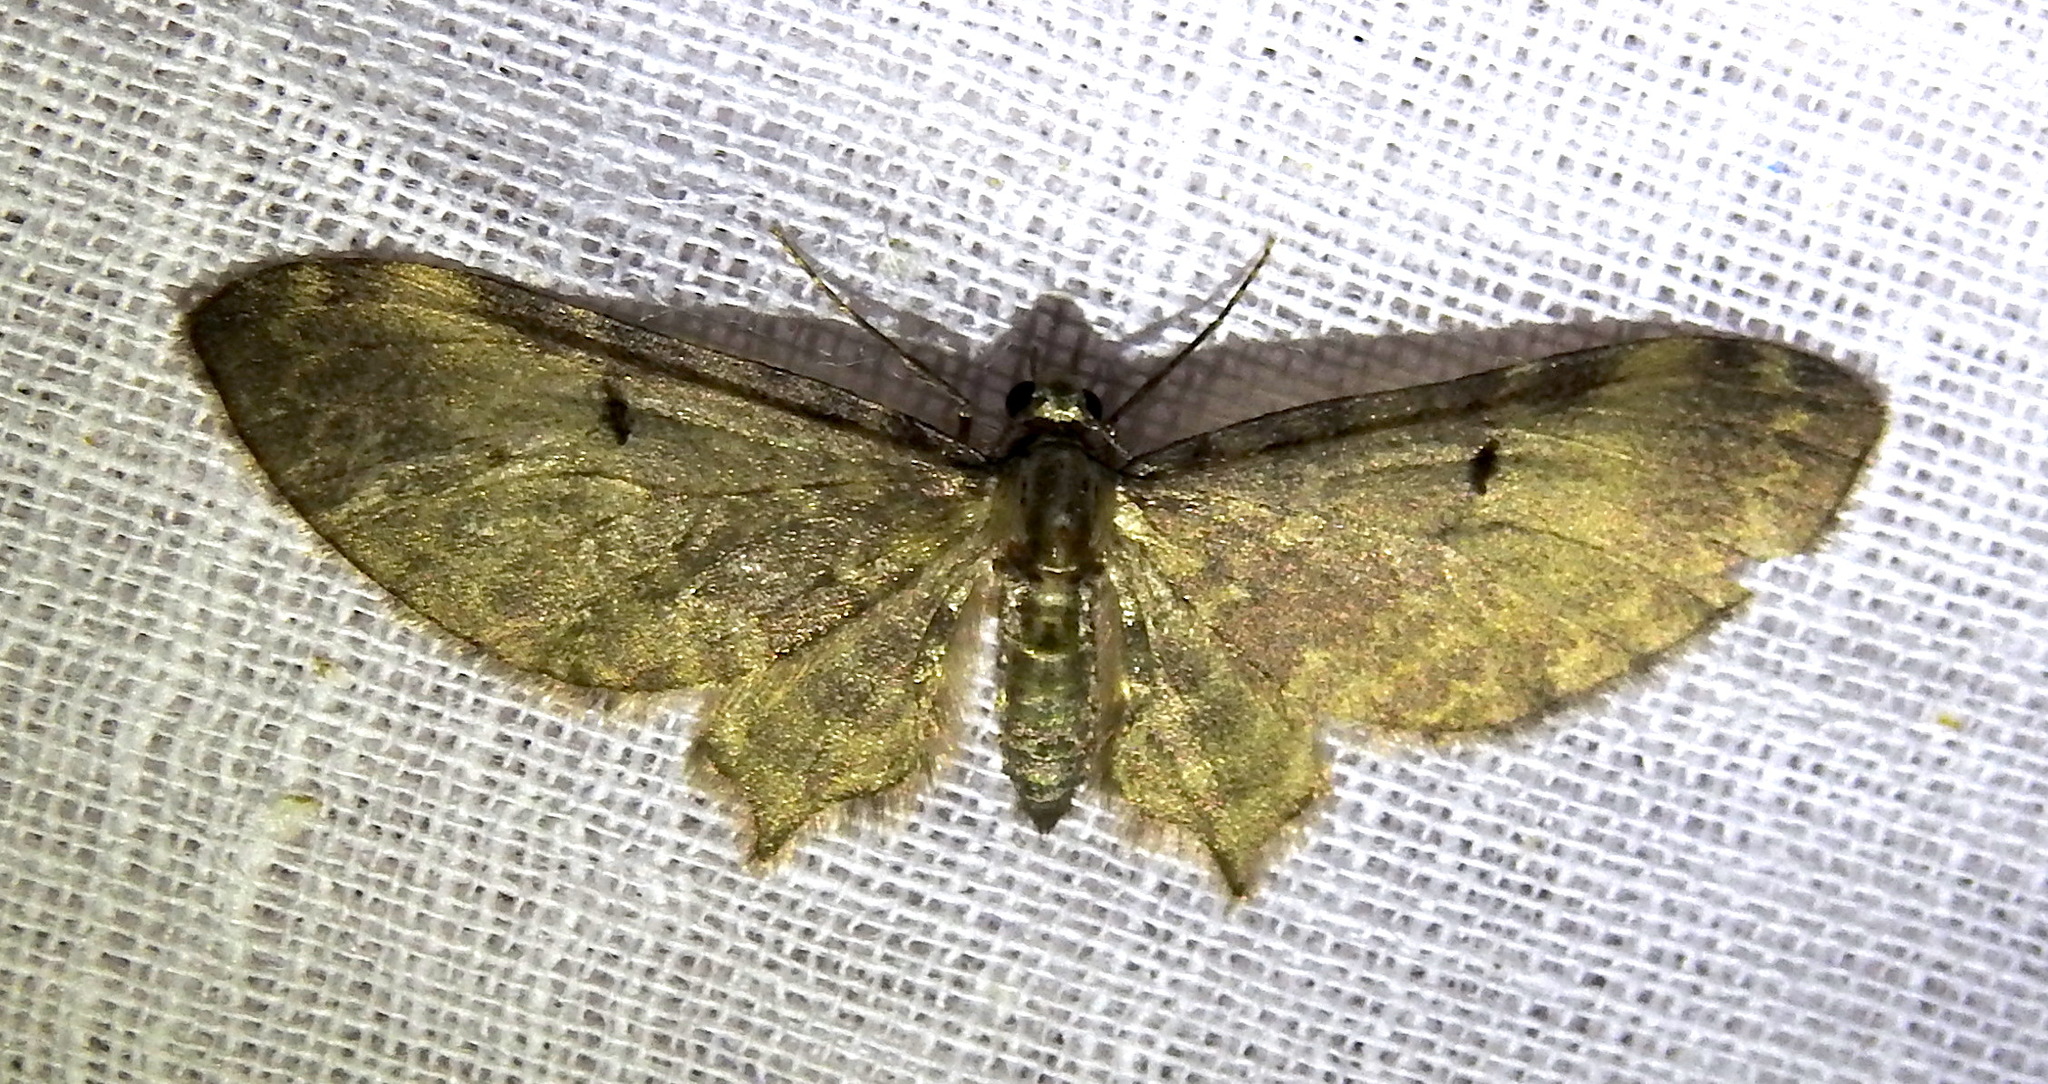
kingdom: Animalia
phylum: Arthropoda
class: Insecta
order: Lepidoptera
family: Geometridae
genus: Brabira
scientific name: Brabira atkinsonii
